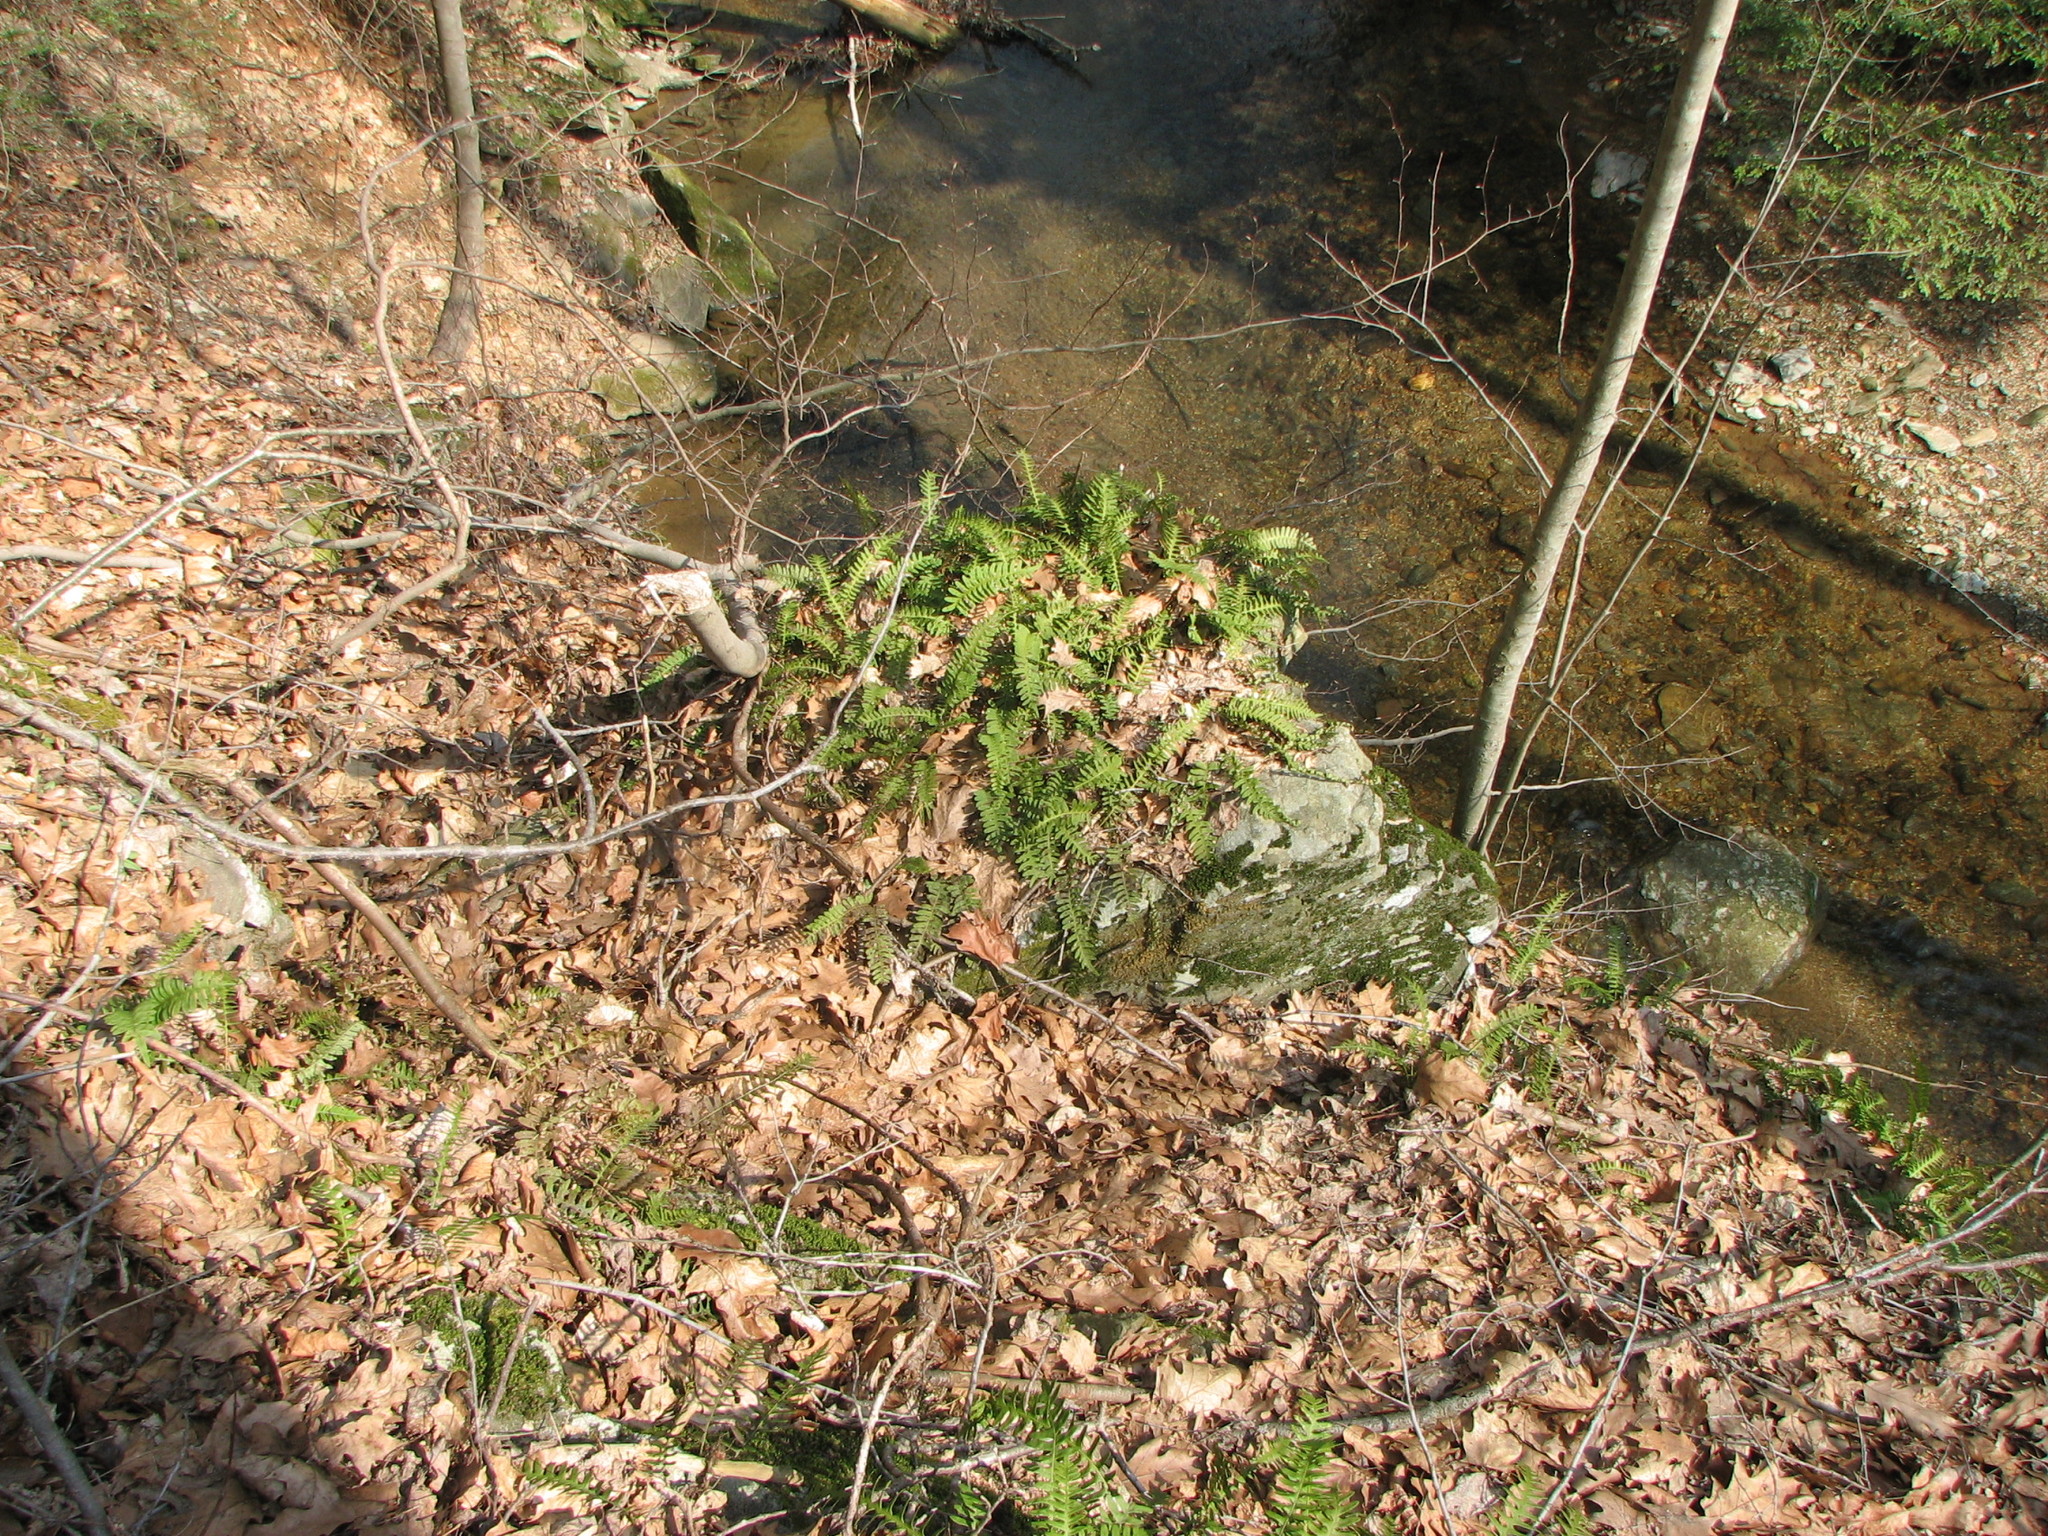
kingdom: Plantae
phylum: Tracheophyta
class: Polypodiopsida
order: Polypodiales
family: Polypodiaceae
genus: Polypodium
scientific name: Polypodium virginianum
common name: American wall fern
